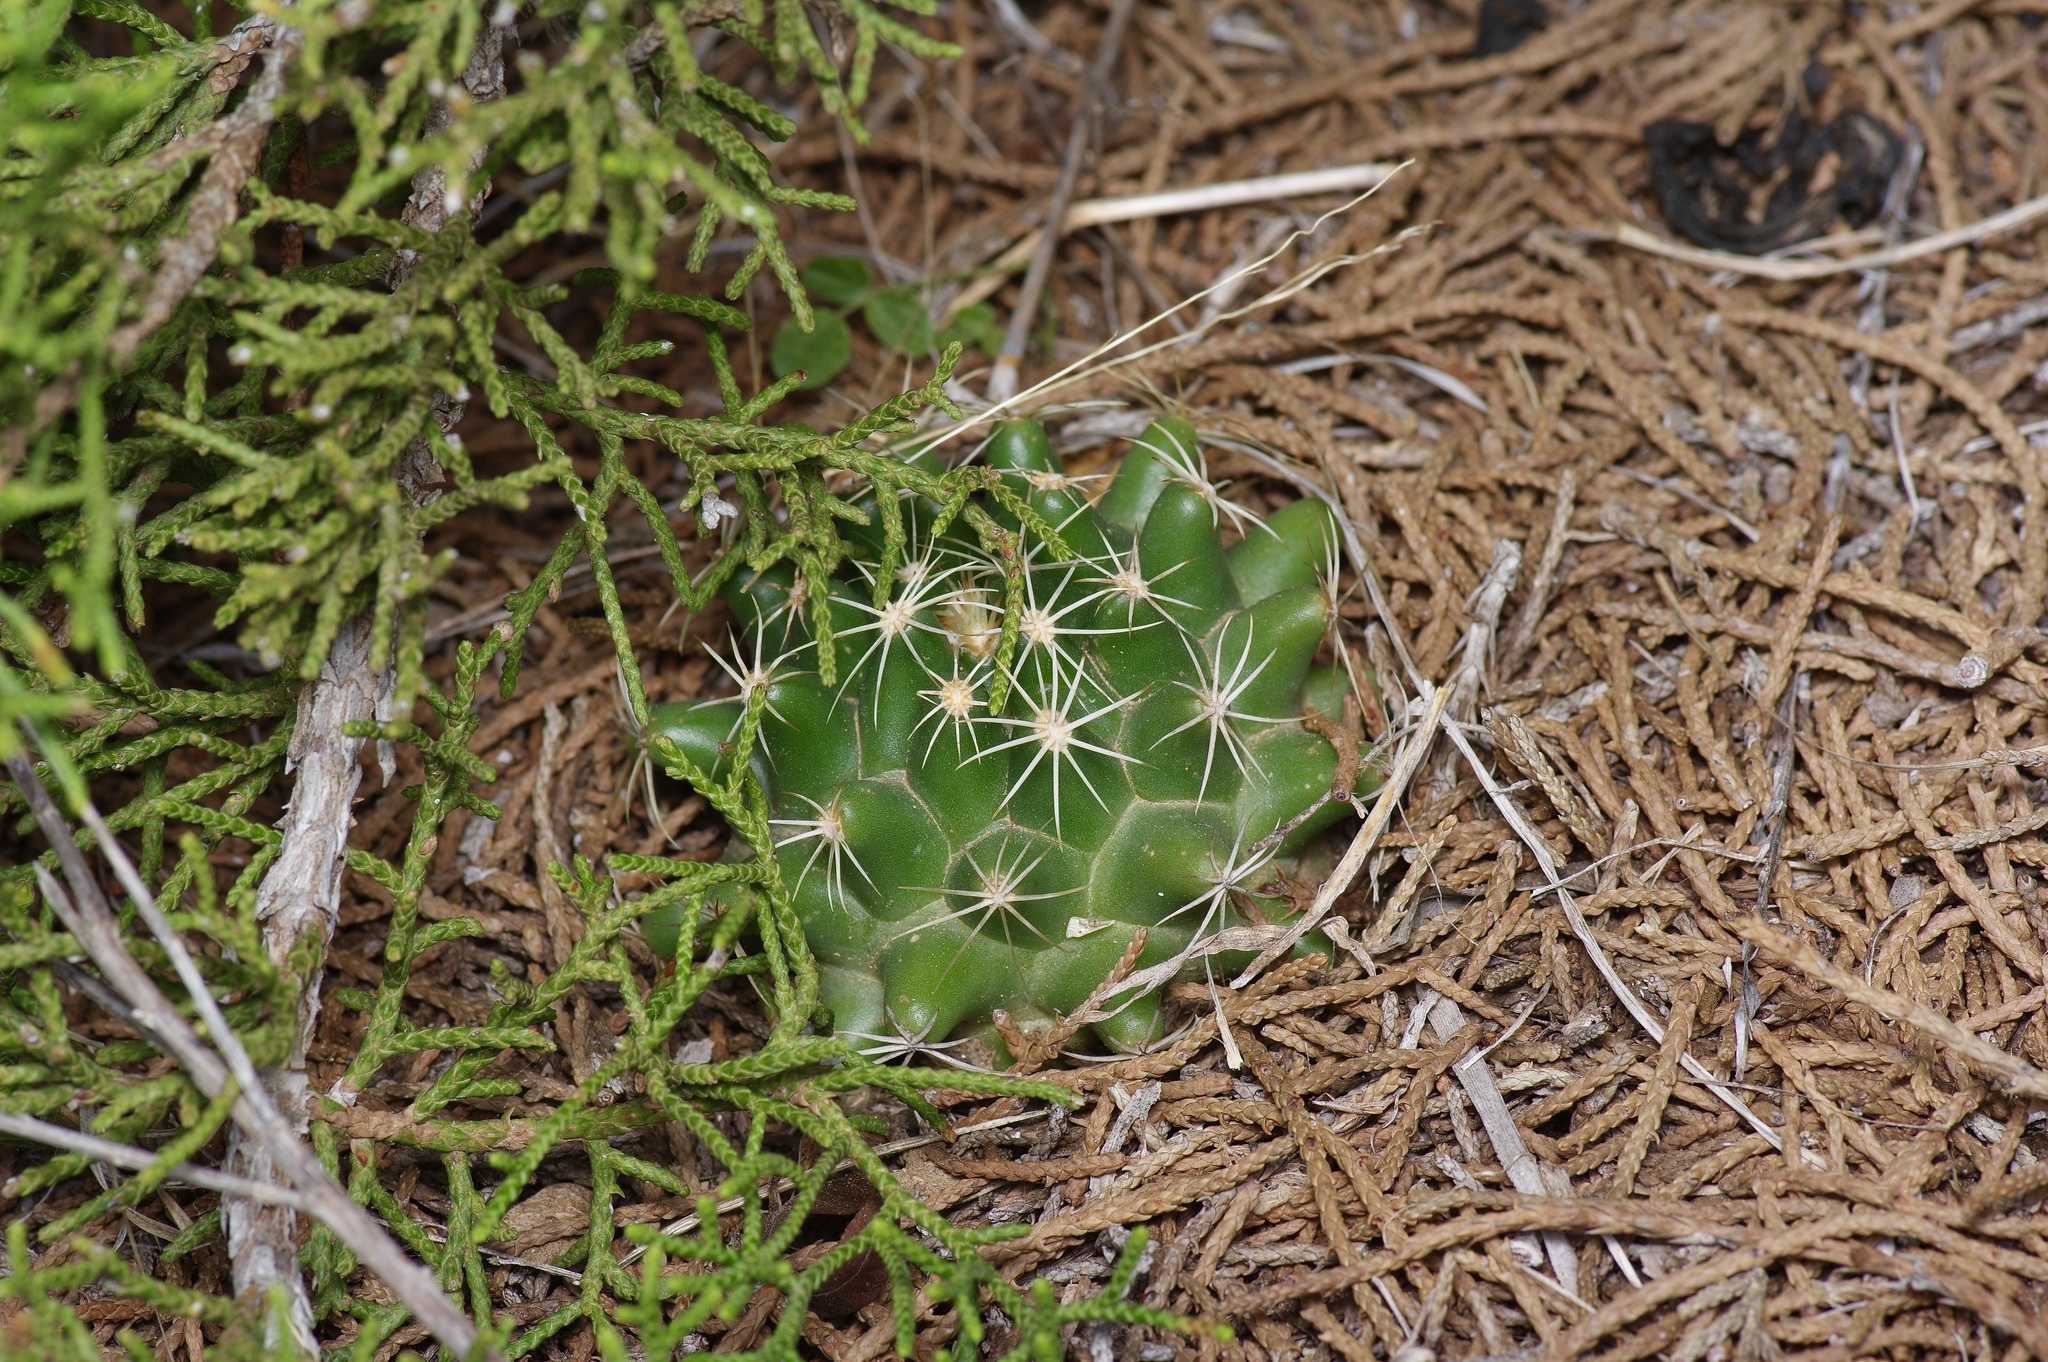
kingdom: Plantae
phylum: Tracheophyta
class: Magnoliopsida
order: Caryophyllales
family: Cactaceae
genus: Coryphantha
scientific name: Coryphantha sulcata
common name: Finger cactus
